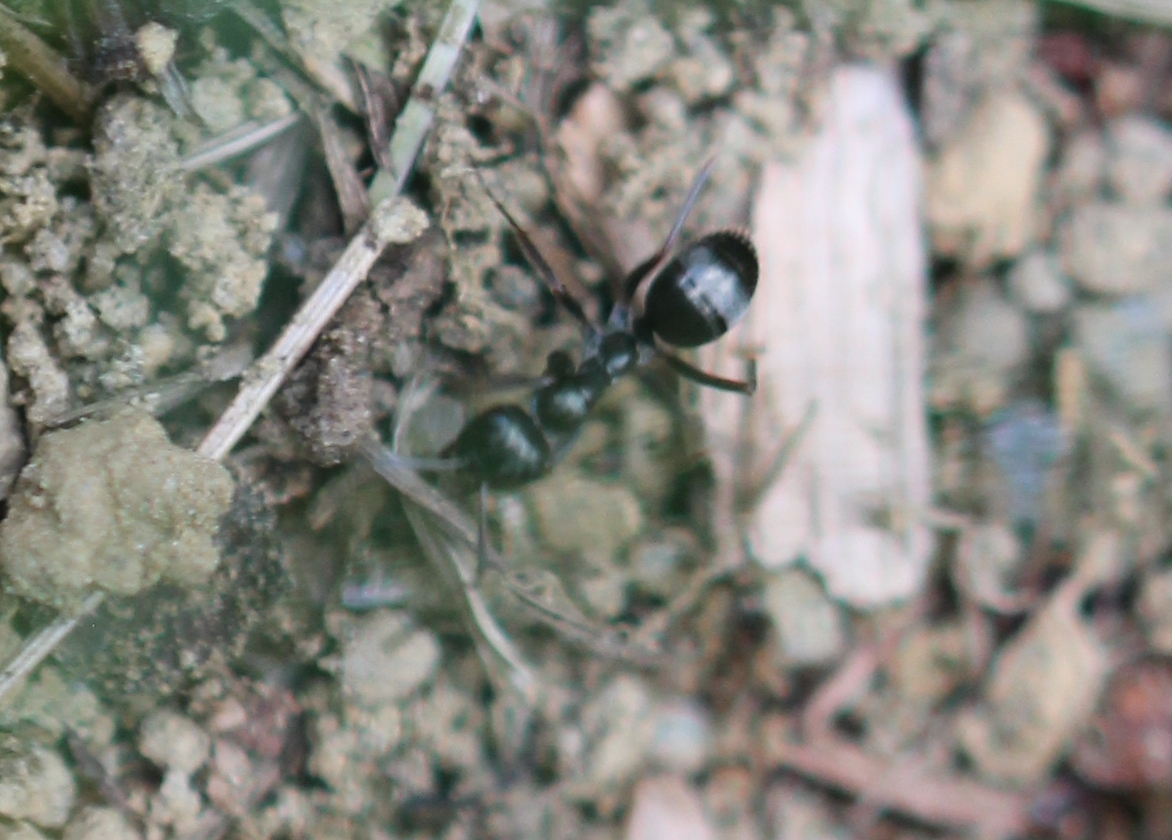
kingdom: Animalia
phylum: Arthropoda
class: Insecta
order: Hymenoptera
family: Formicidae
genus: Formica
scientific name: Formica
